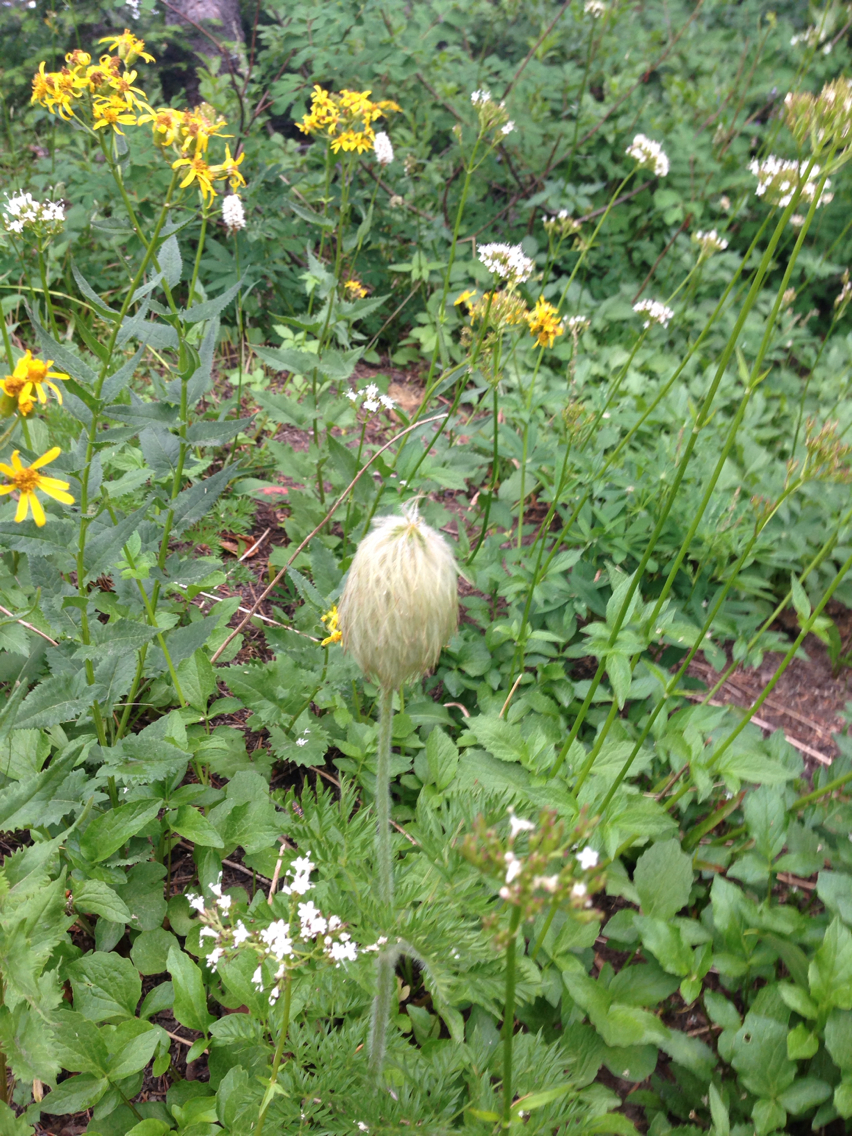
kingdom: Plantae
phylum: Tracheophyta
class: Magnoliopsida
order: Ranunculales
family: Ranunculaceae
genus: Pulsatilla
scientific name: Pulsatilla occidentalis
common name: Mountain pasqueflower
